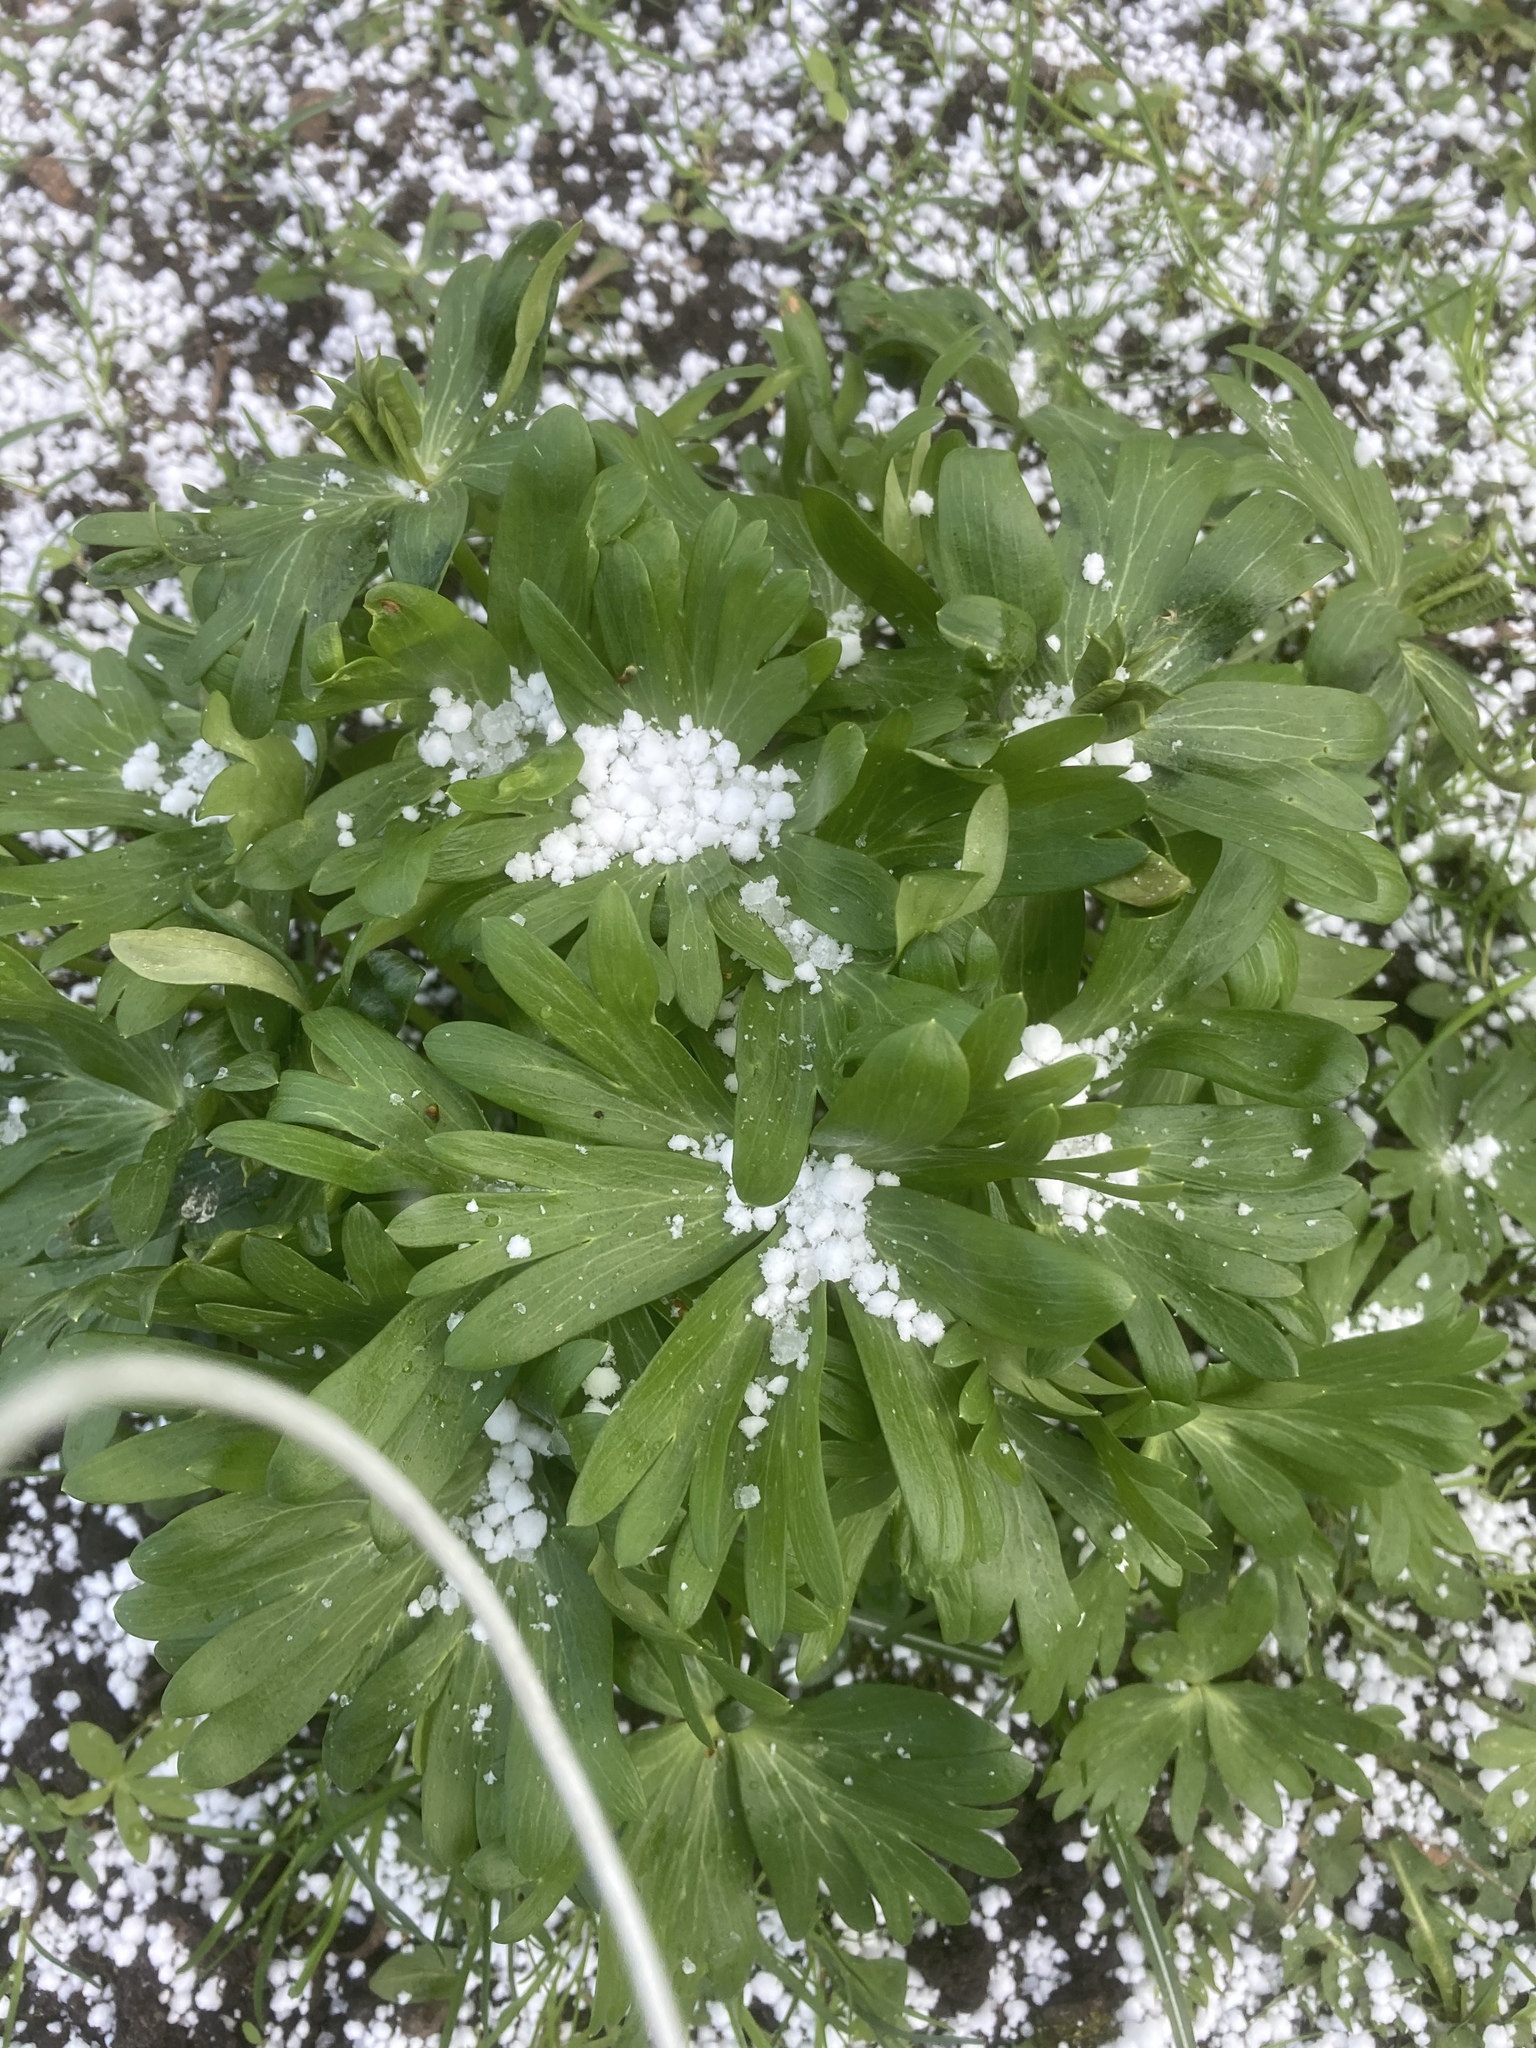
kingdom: Plantae
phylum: Tracheophyta
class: Magnoliopsida
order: Ranunculales
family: Ranunculaceae
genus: Eranthis
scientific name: Eranthis hyemalis
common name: Winter aconite
